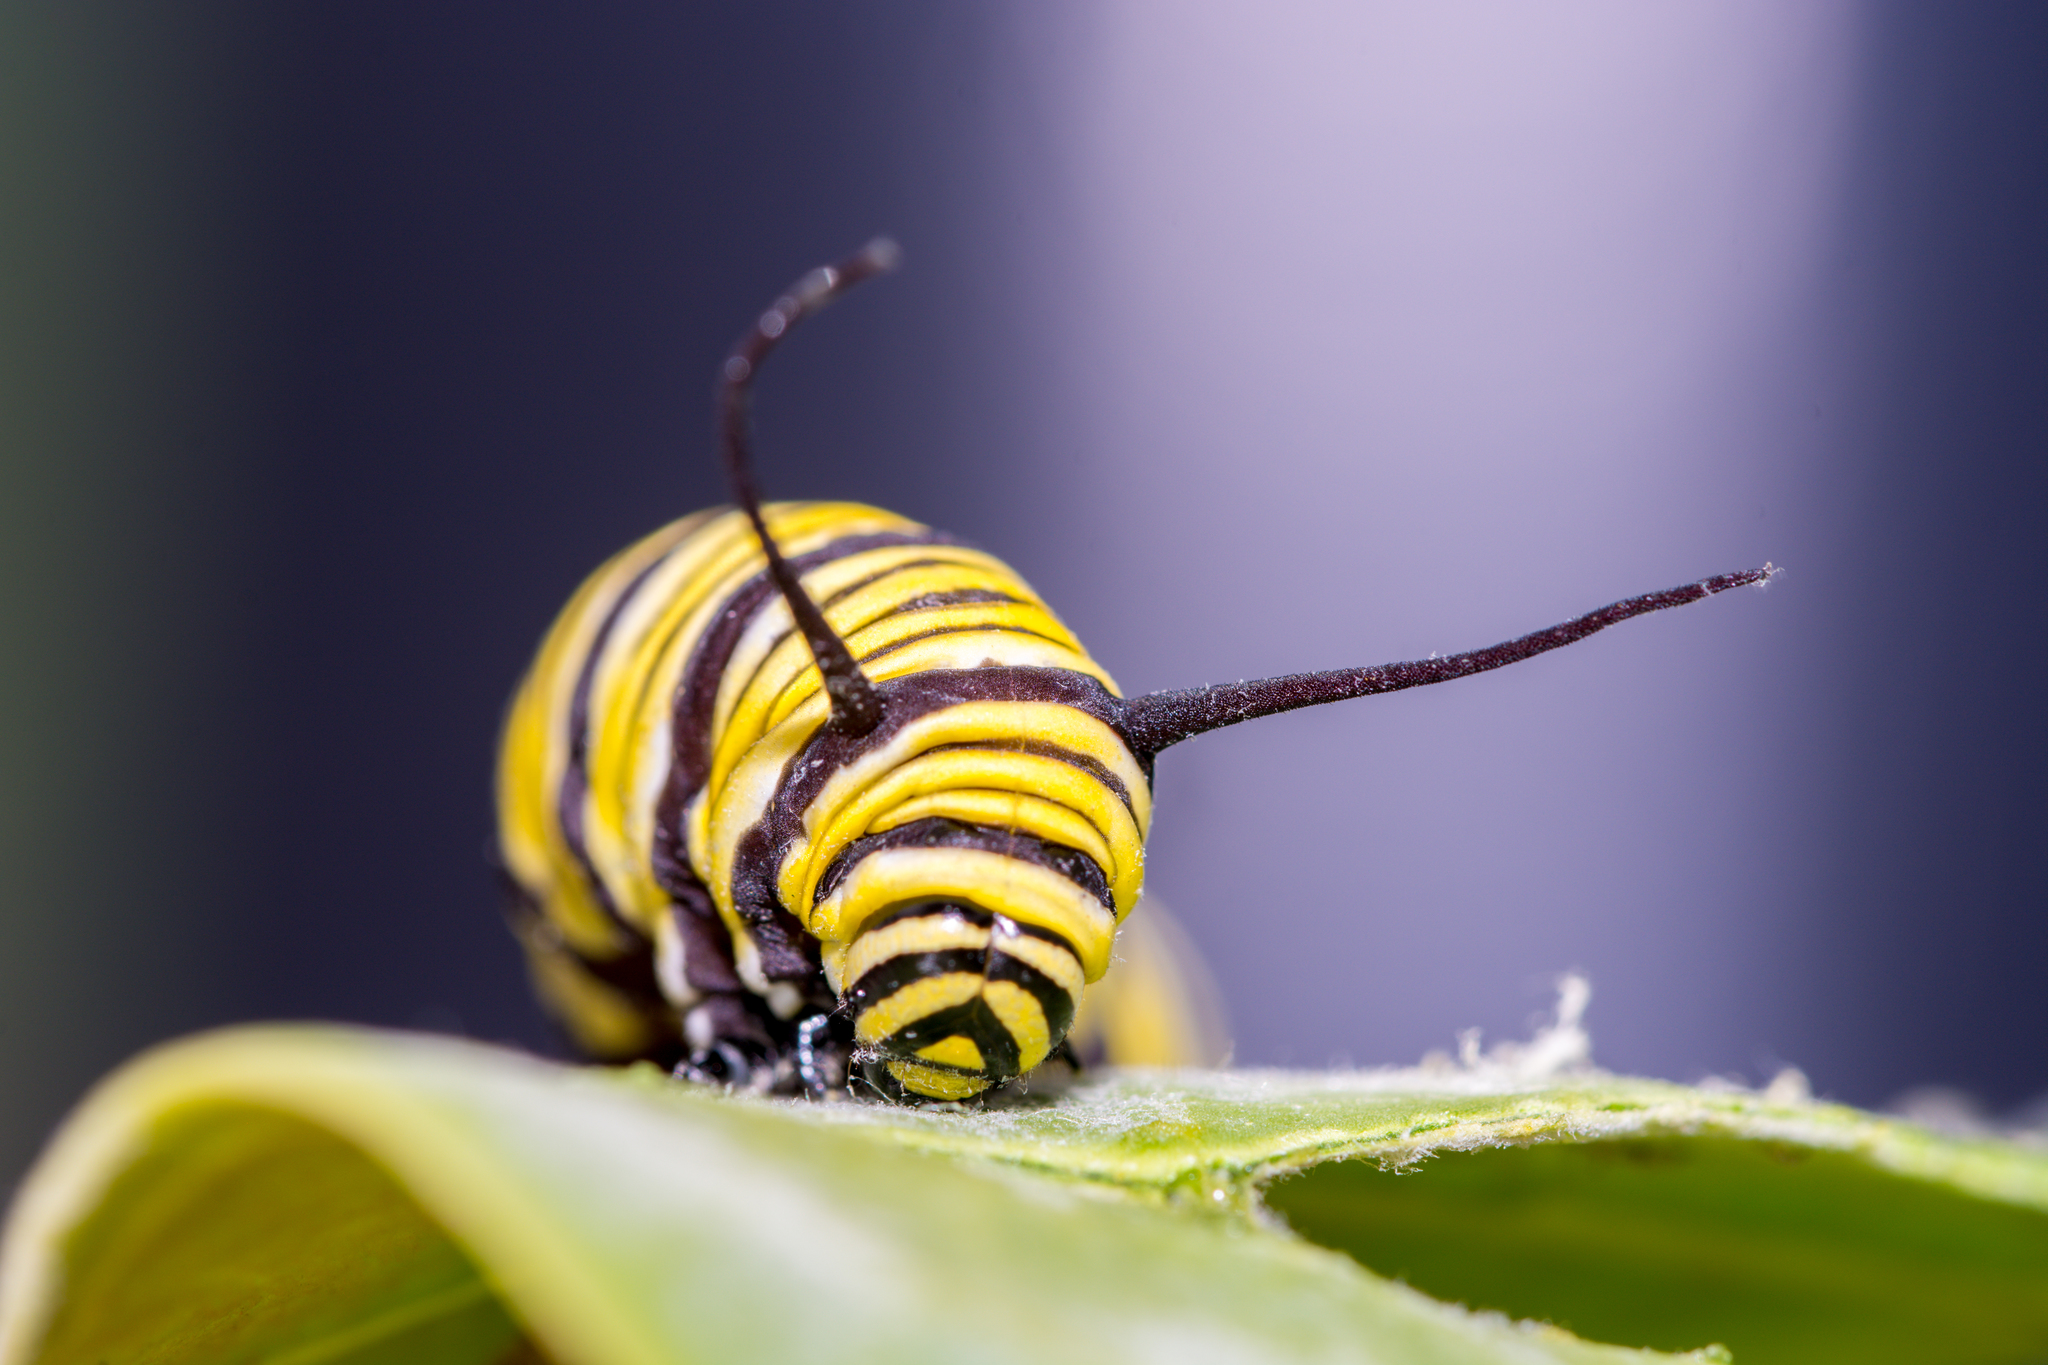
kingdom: Animalia
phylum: Arthropoda
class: Insecta
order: Lepidoptera
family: Nymphalidae
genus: Danaus
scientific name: Danaus plexippus
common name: Monarch
